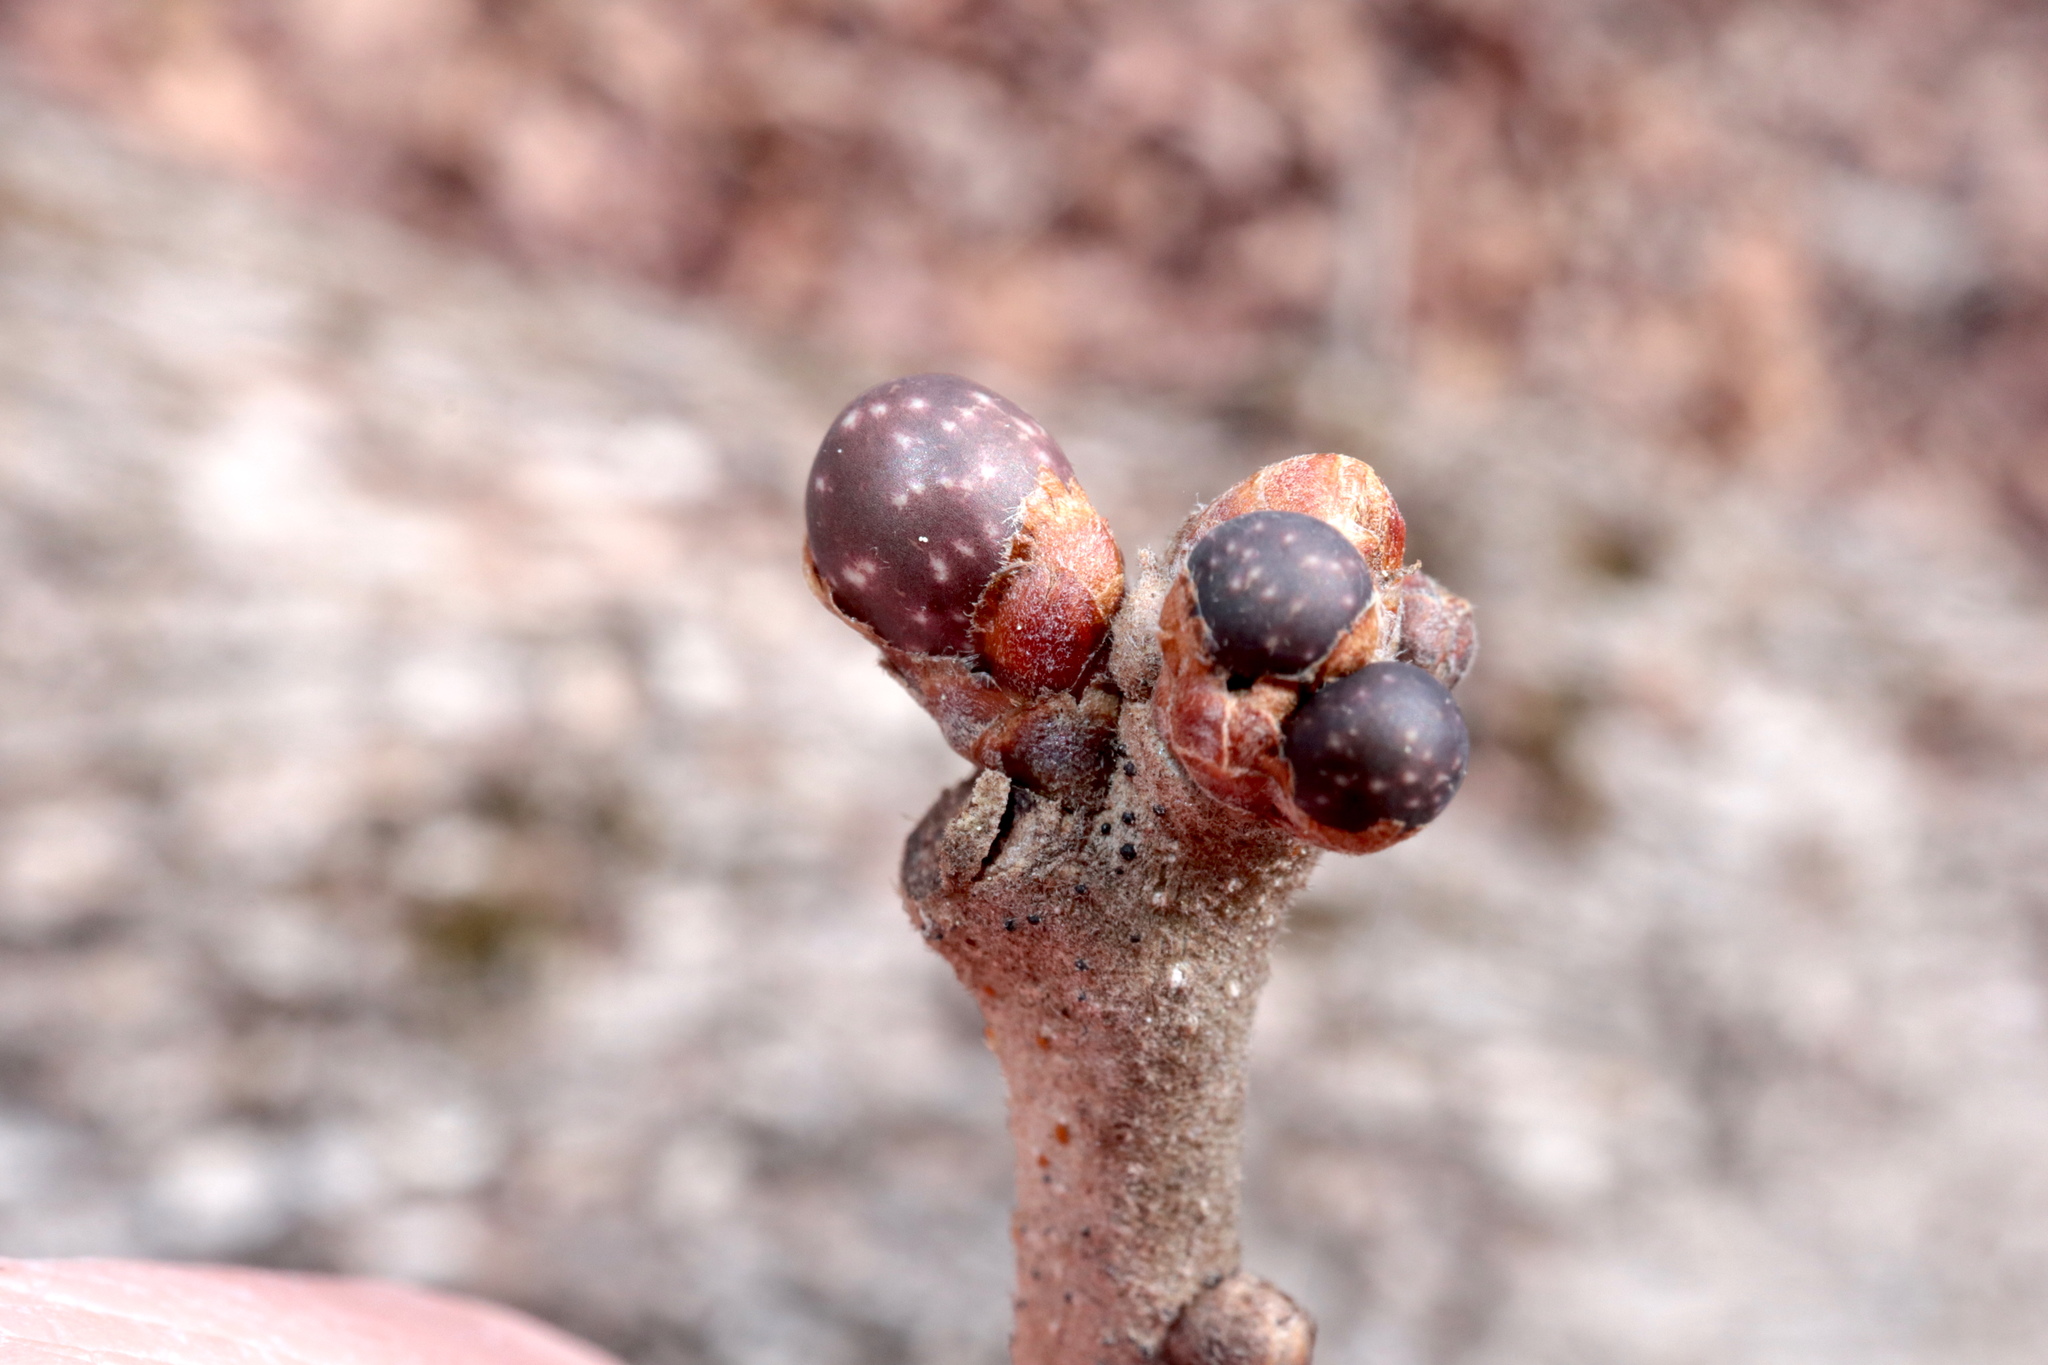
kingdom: Animalia
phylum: Arthropoda
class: Insecta
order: Hymenoptera
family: Cynipidae
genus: Neuroterus
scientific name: Neuroterus
